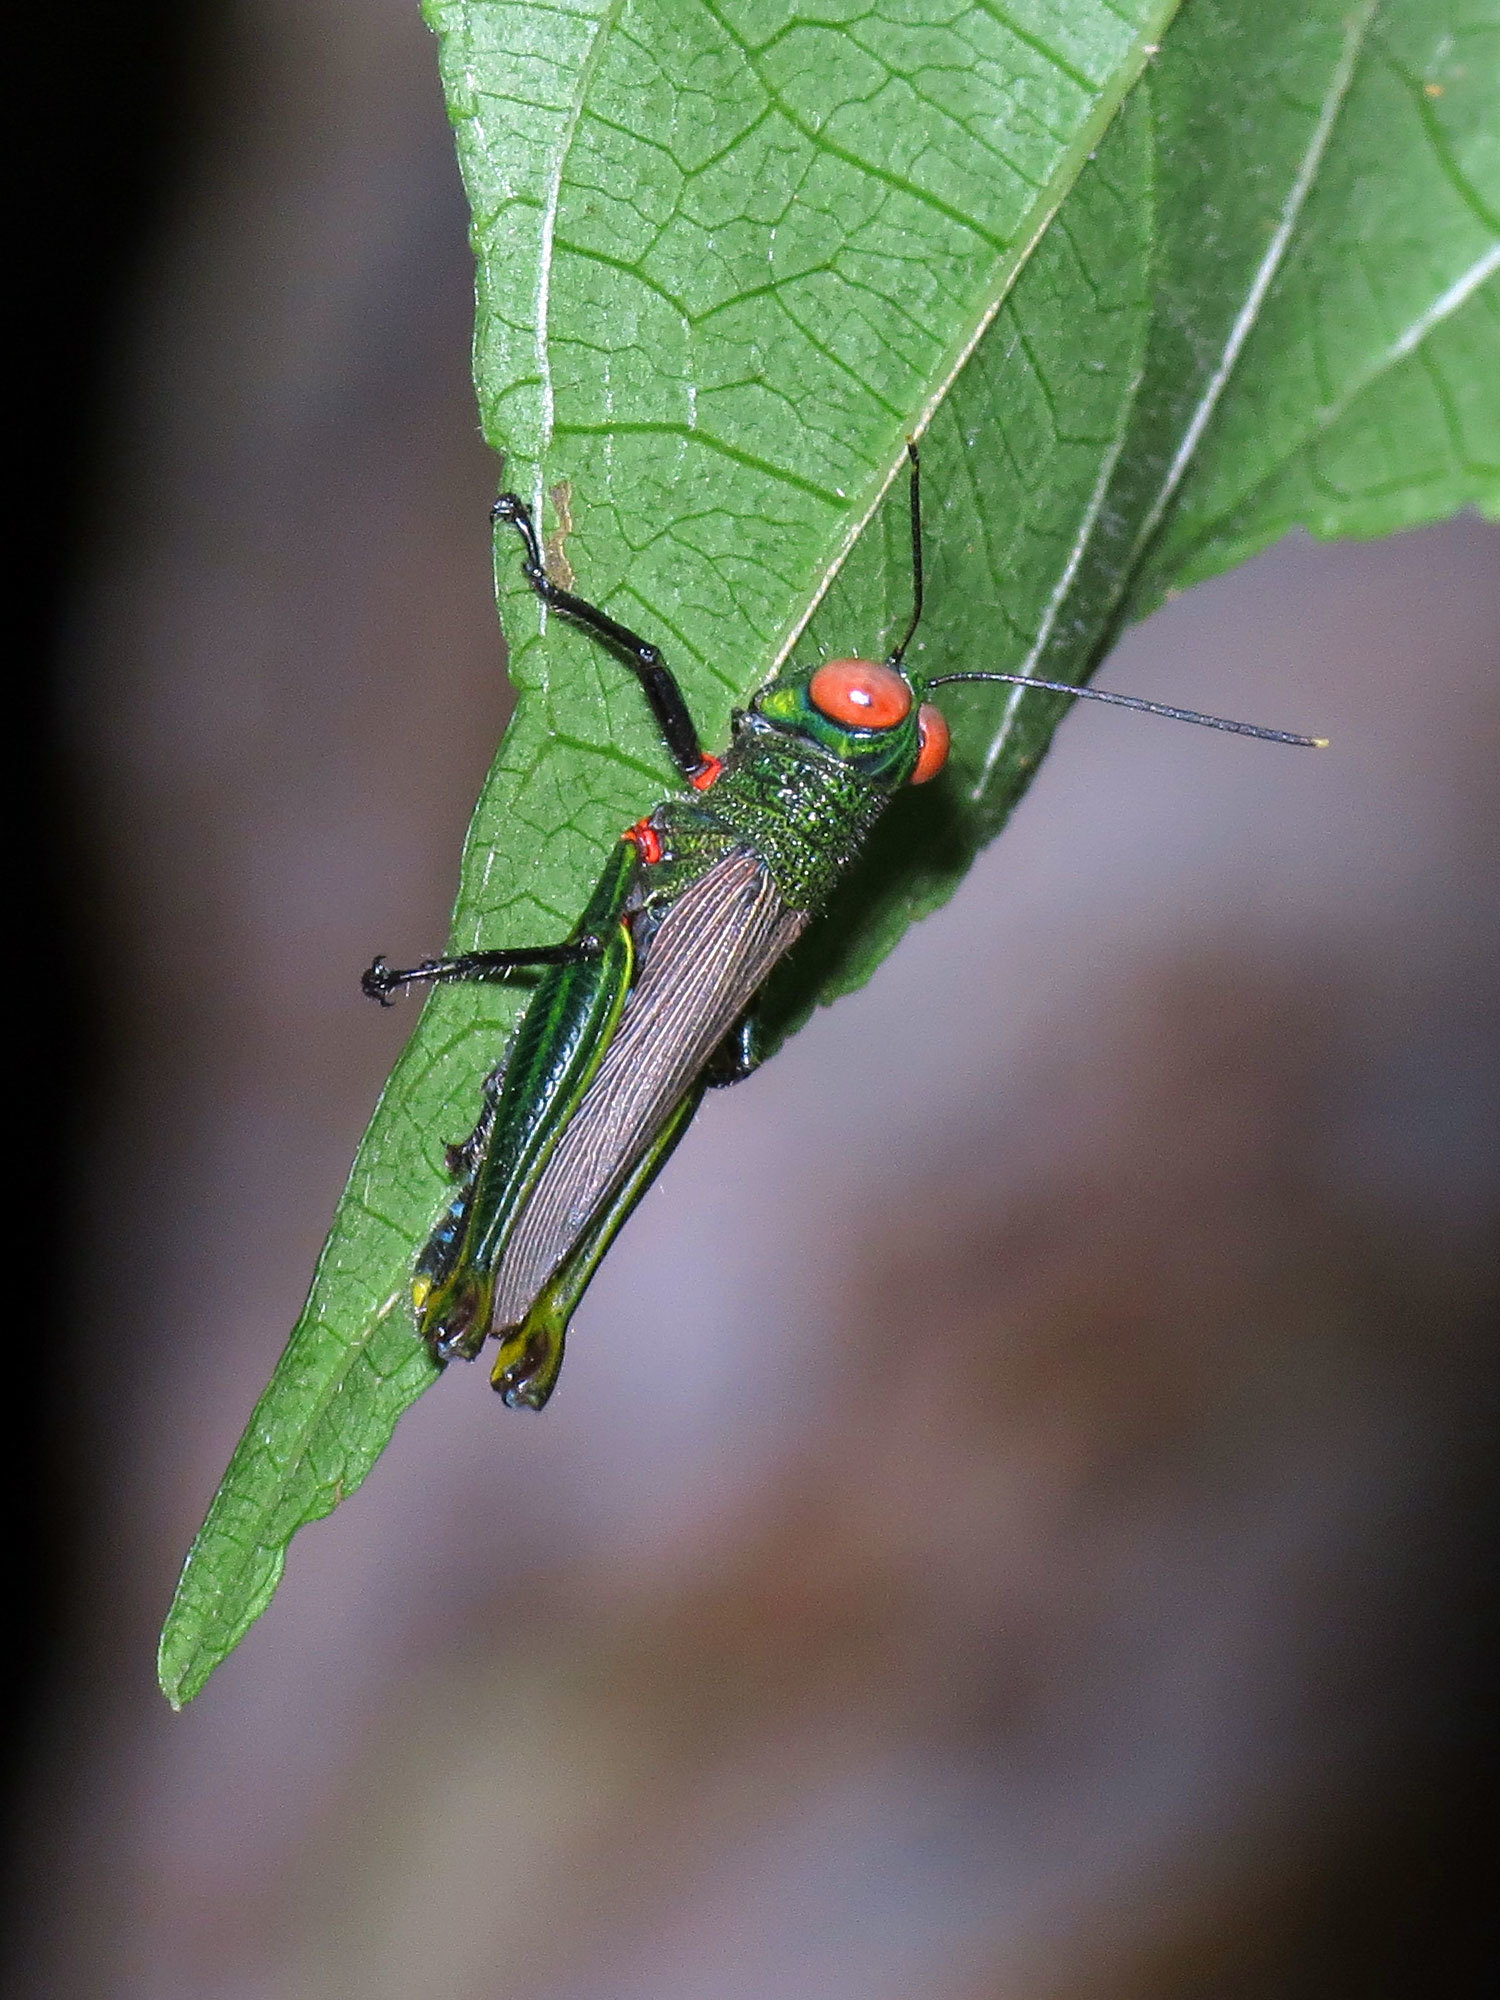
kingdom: Animalia
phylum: Arthropoda
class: Insecta
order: Orthoptera
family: Acrididae
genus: Coscineuta
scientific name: Coscineuta coxalis
